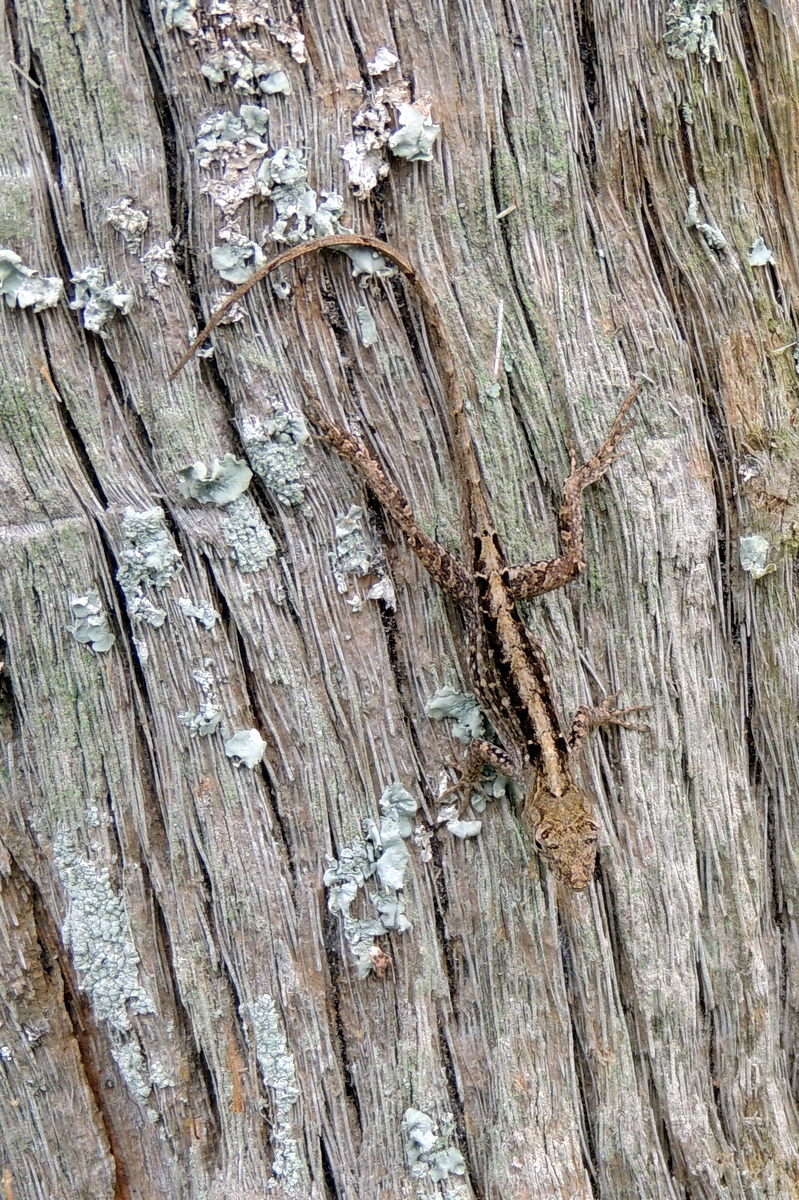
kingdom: Animalia
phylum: Chordata
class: Squamata
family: Dactyloidae
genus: Anolis
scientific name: Anolis sagrei
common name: Brown anole
